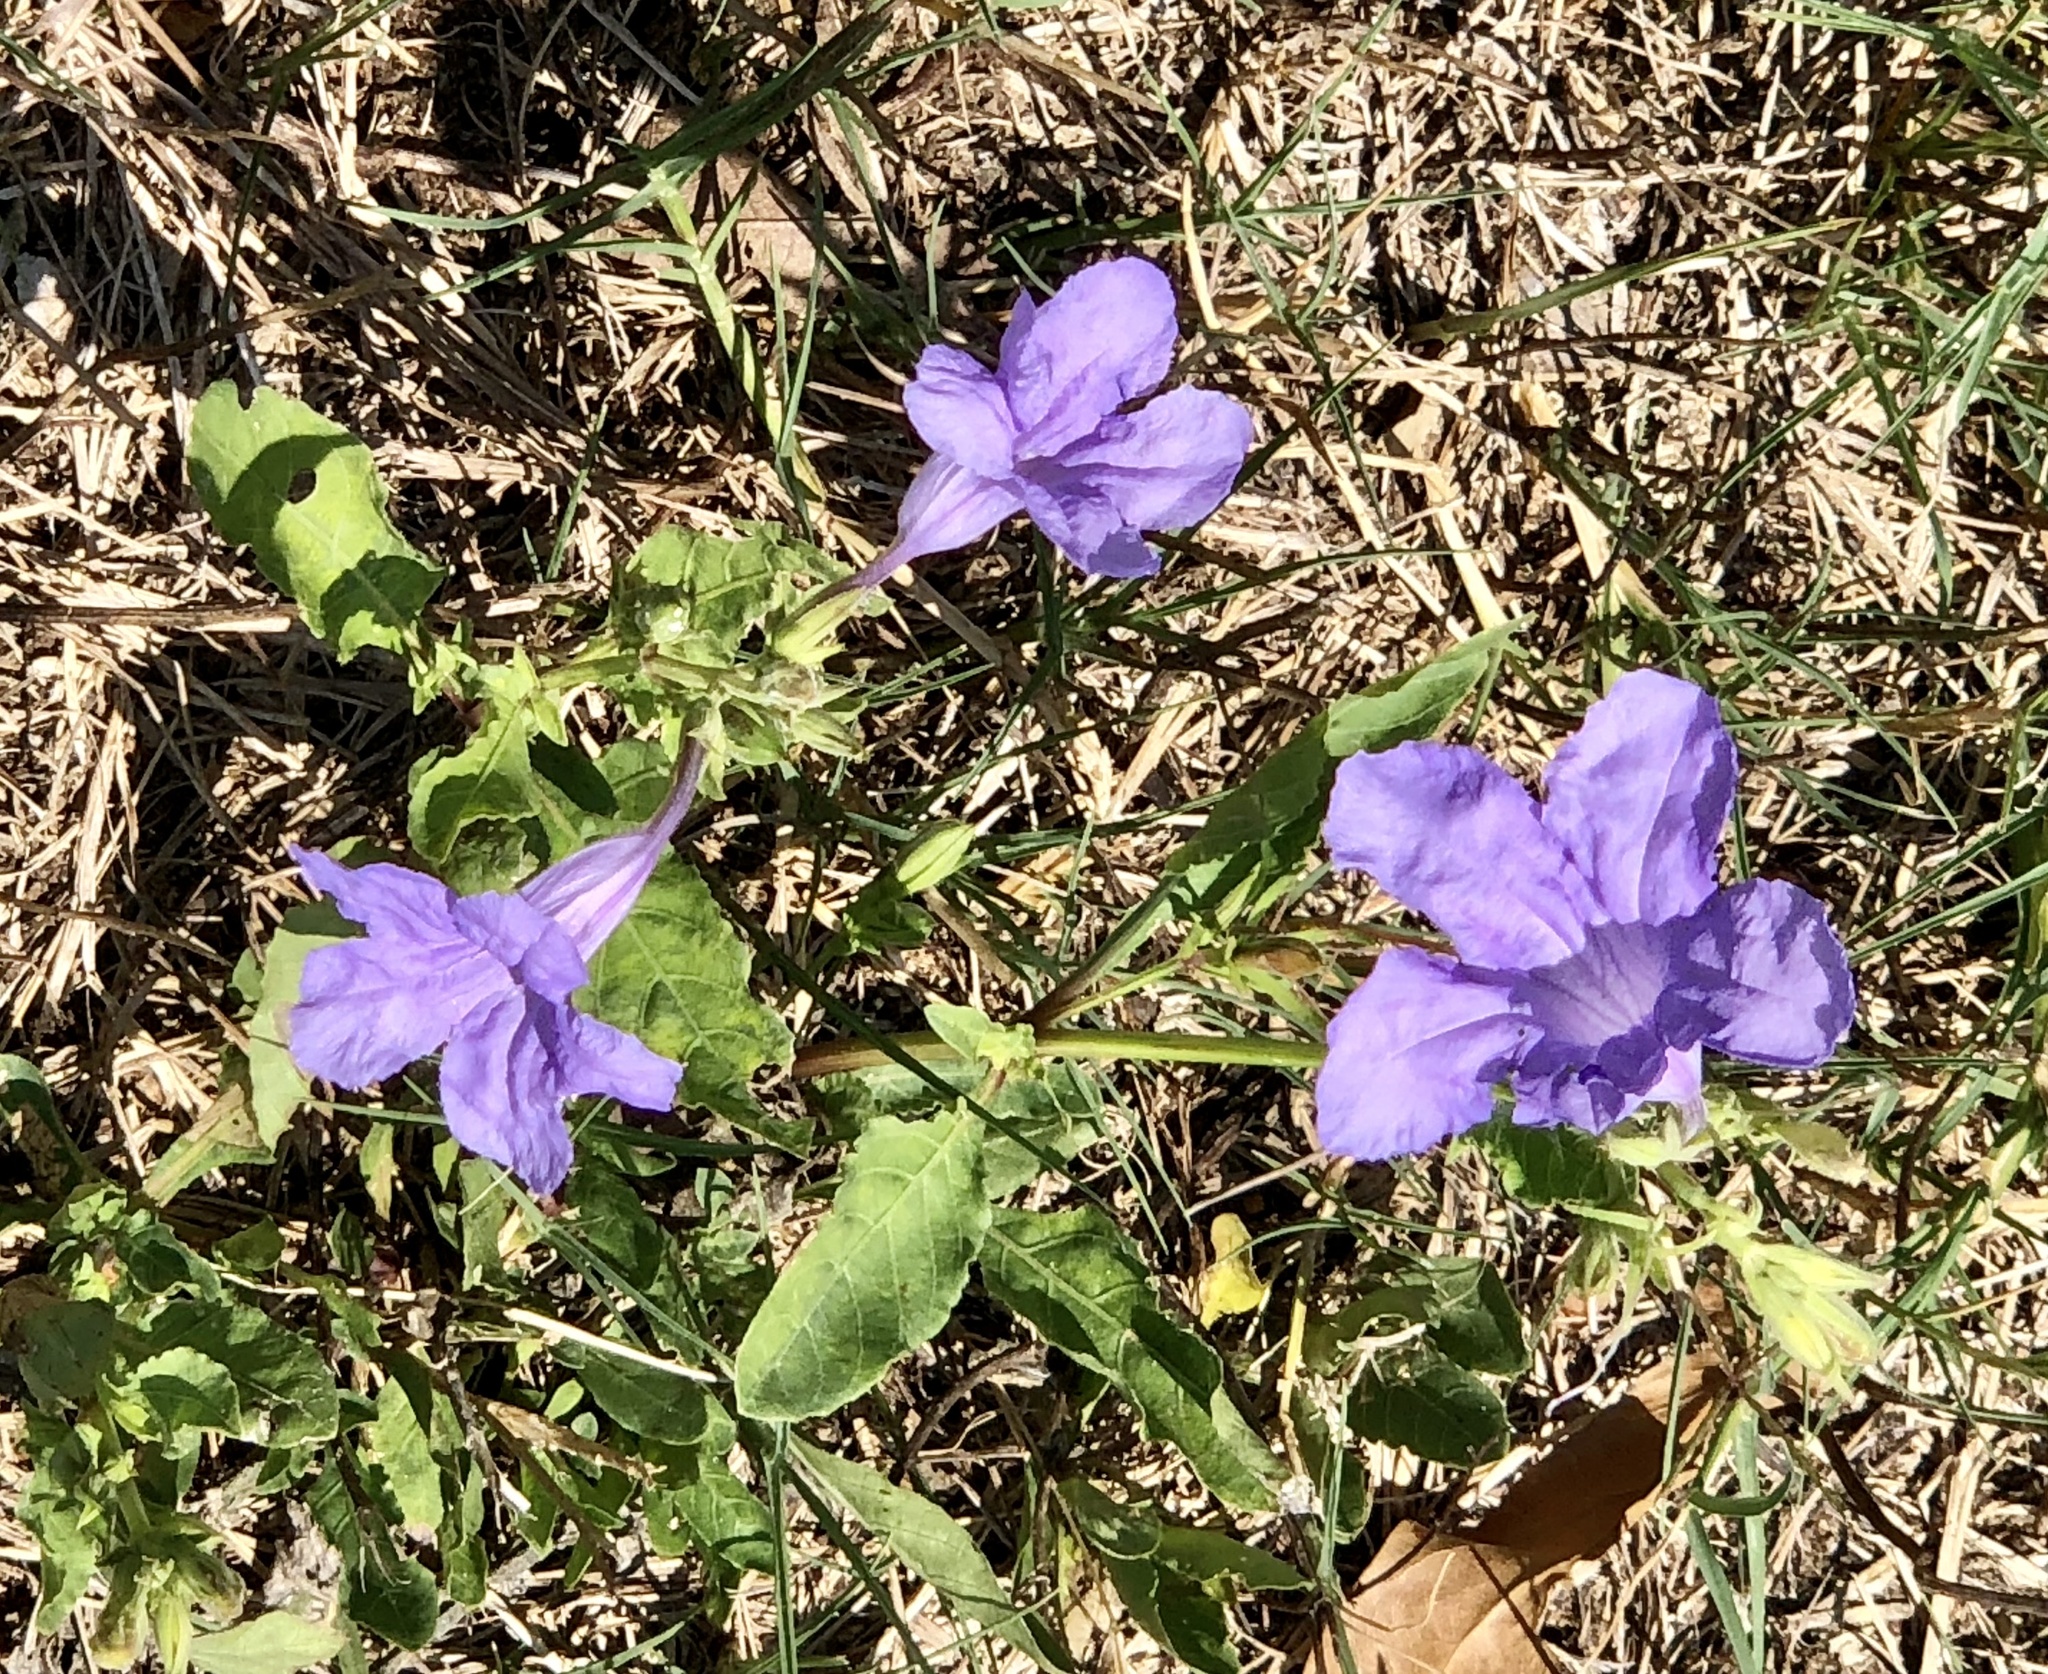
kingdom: Plantae
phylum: Tracheophyta
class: Magnoliopsida
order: Lamiales
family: Acanthaceae
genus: Ruellia
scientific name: Ruellia ciliatiflora
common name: Hairyflower wild petunia
